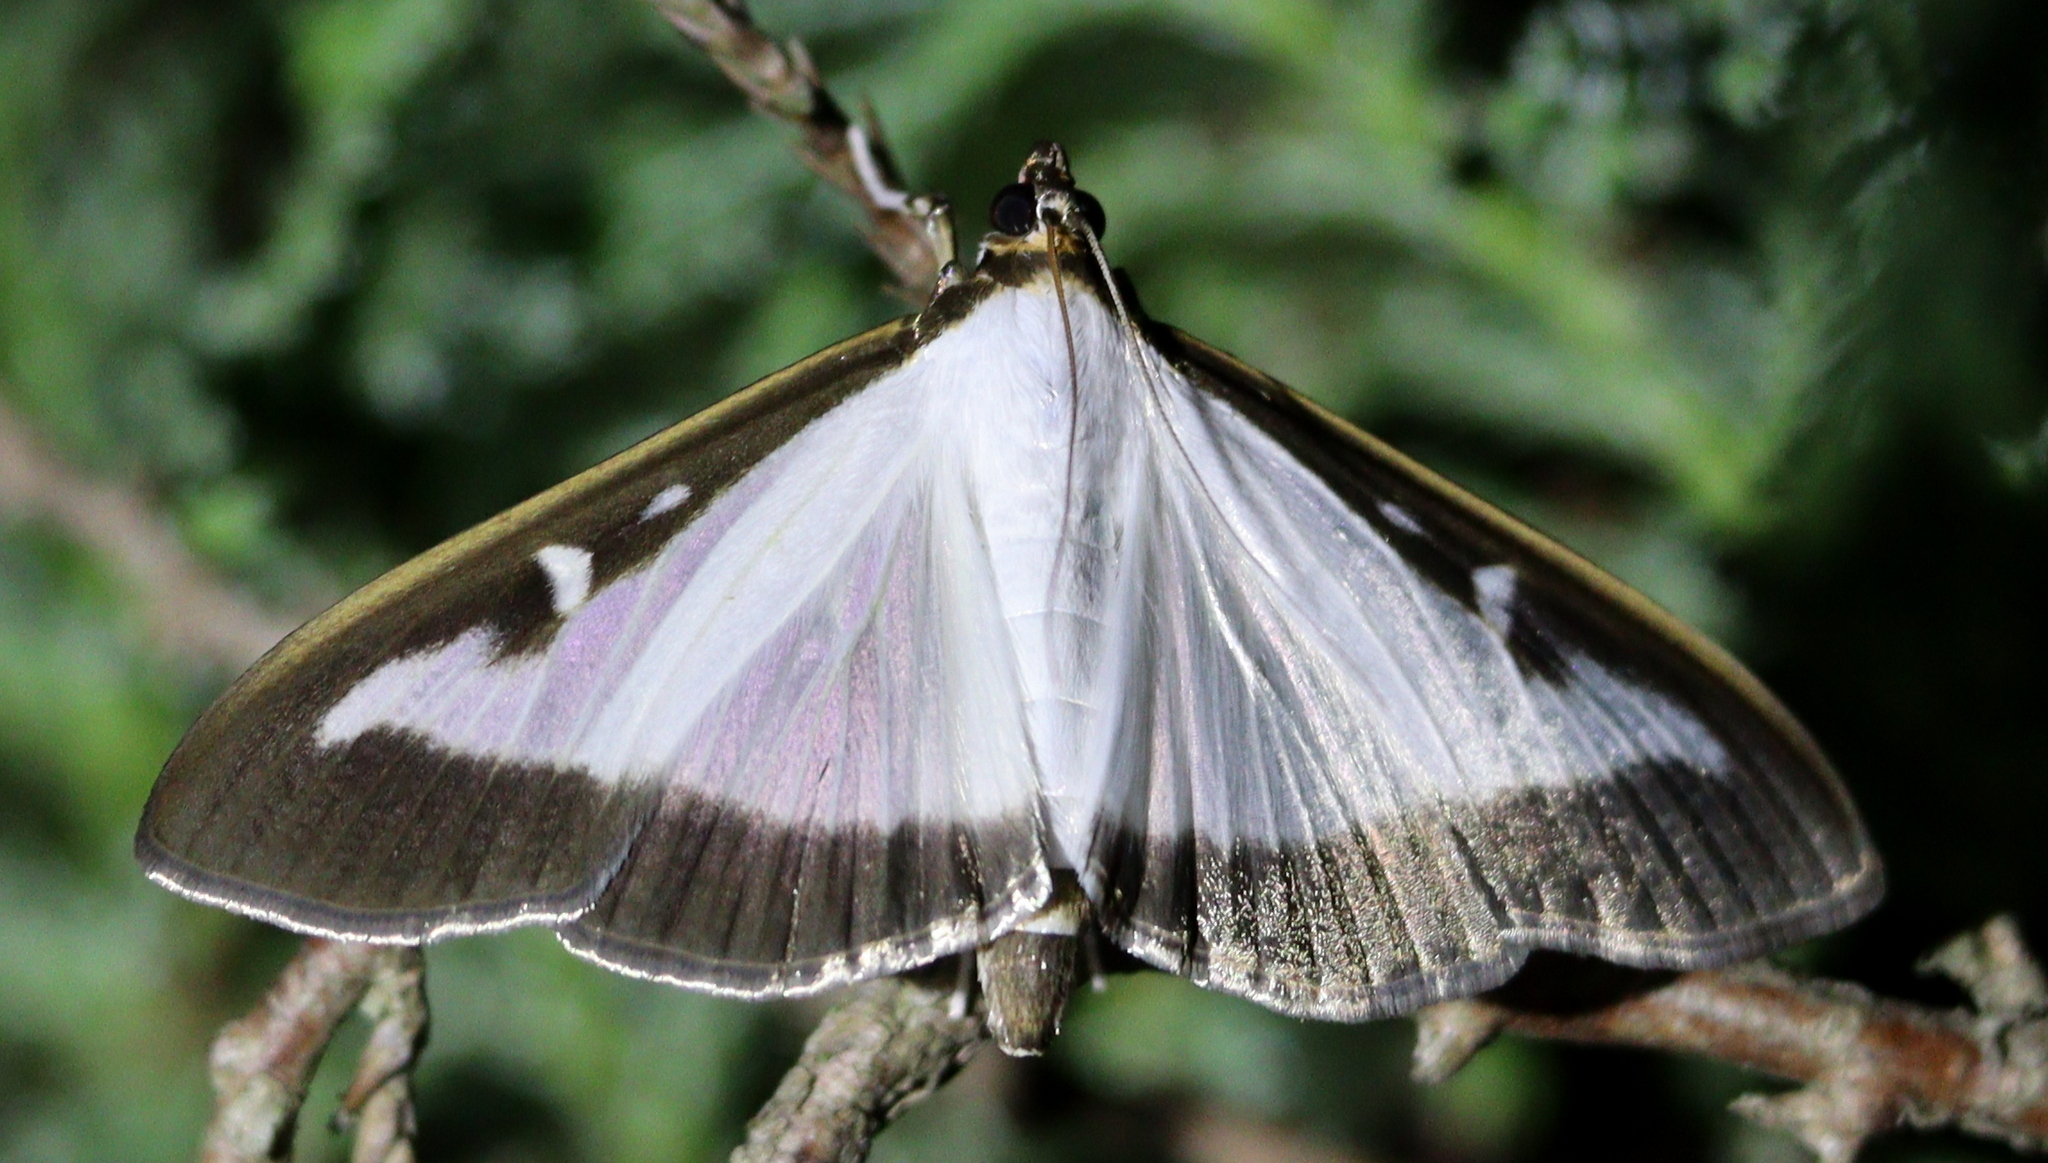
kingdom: Animalia
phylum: Arthropoda
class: Insecta
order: Lepidoptera
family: Crambidae
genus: Cydalima
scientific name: Cydalima perspectalis
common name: Box tree moth
